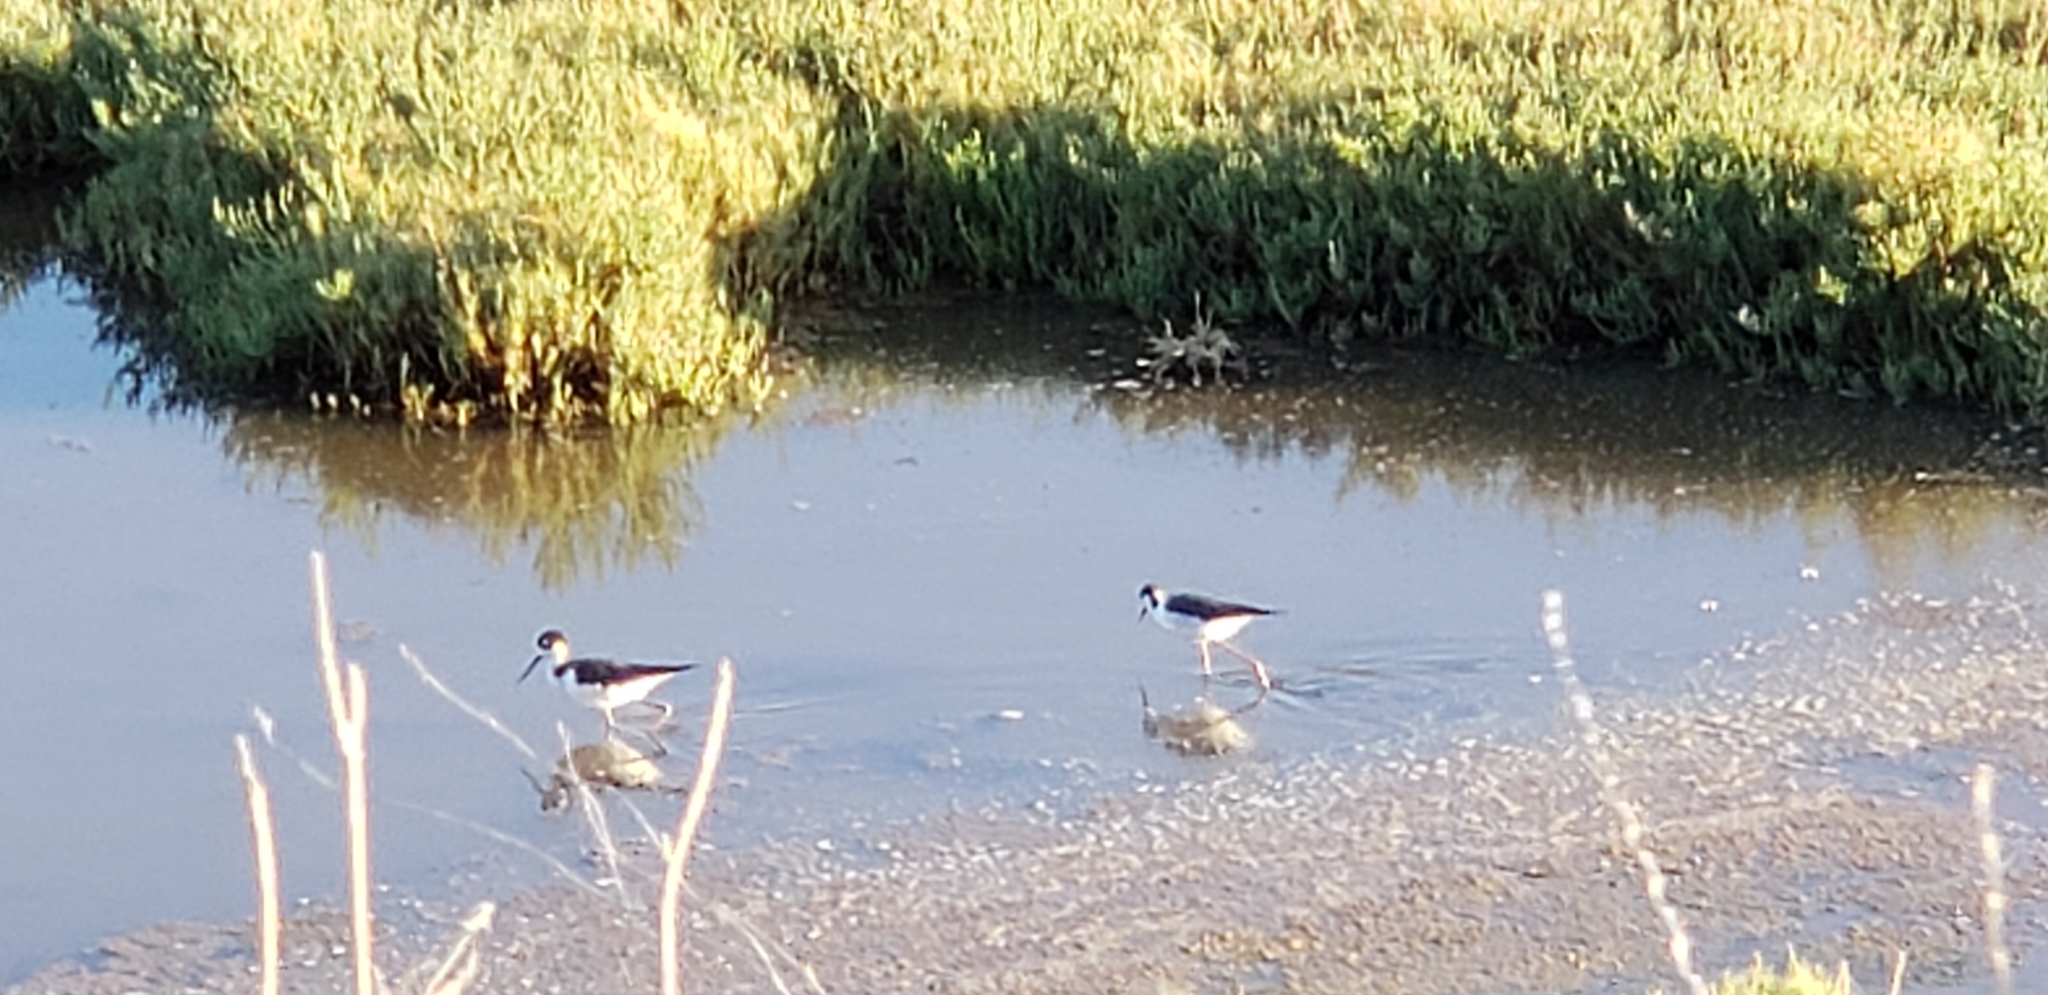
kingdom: Animalia
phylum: Chordata
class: Aves
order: Charadriiformes
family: Recurvirostridae
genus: Himantopus
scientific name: Himantopus mexicanus
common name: Black-necked stilt
